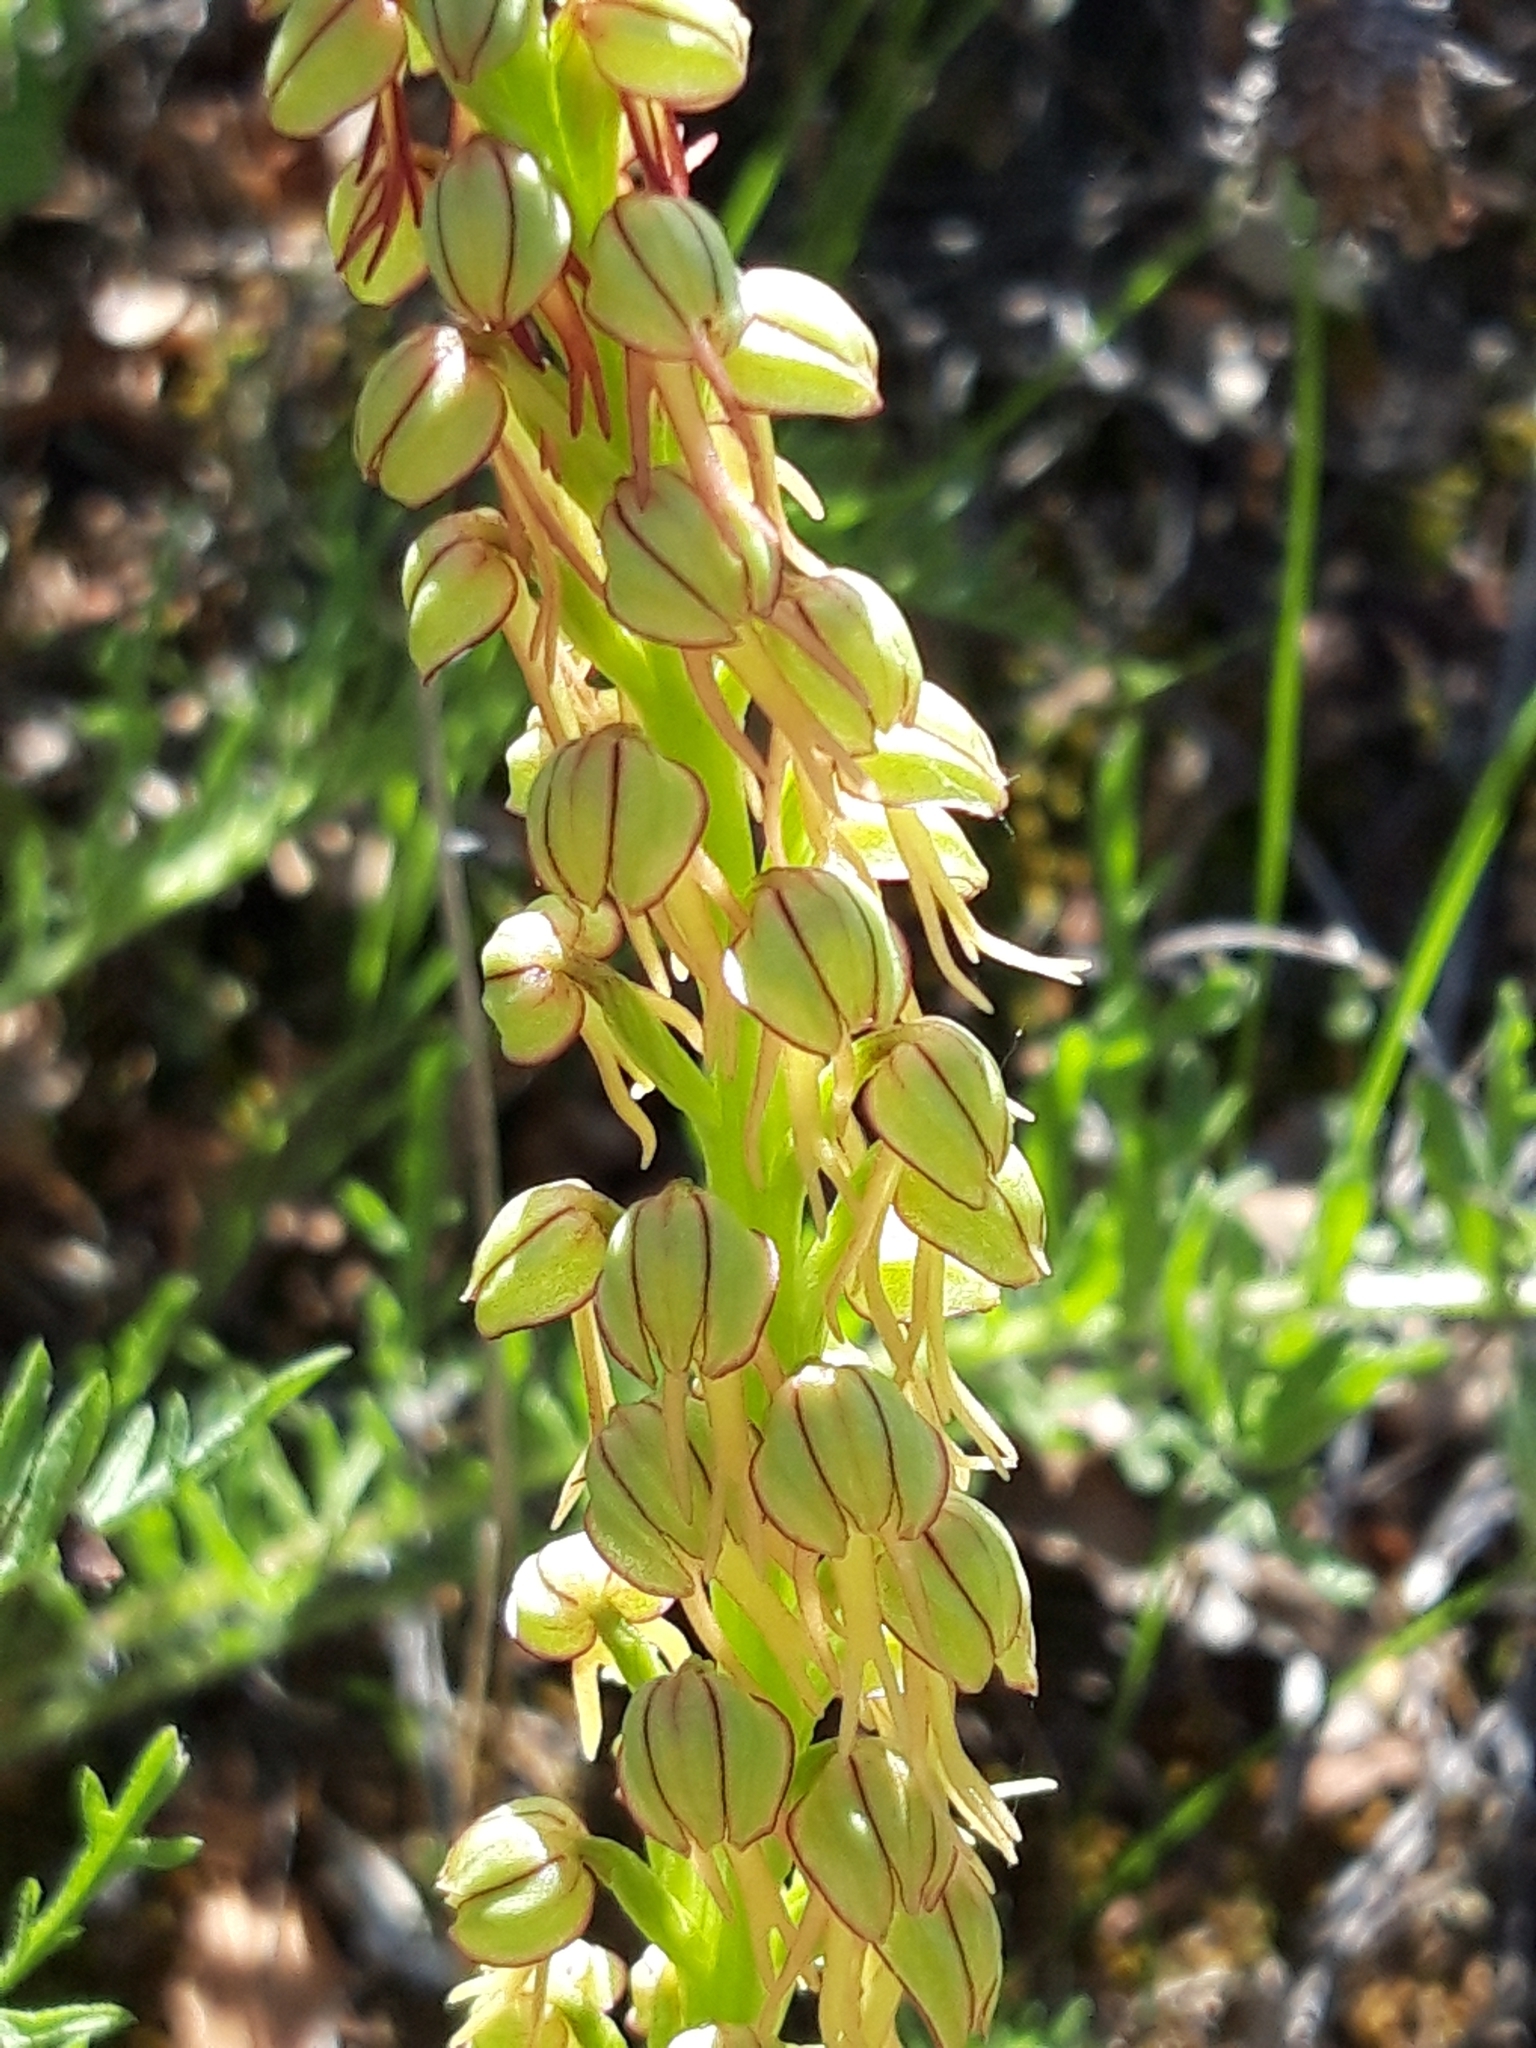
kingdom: Plantae
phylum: Tracheophyta
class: Liliopsida
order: Asparagales
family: Orchidaceae
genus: Orchis
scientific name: Orchis anthropophora
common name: Man orchid
